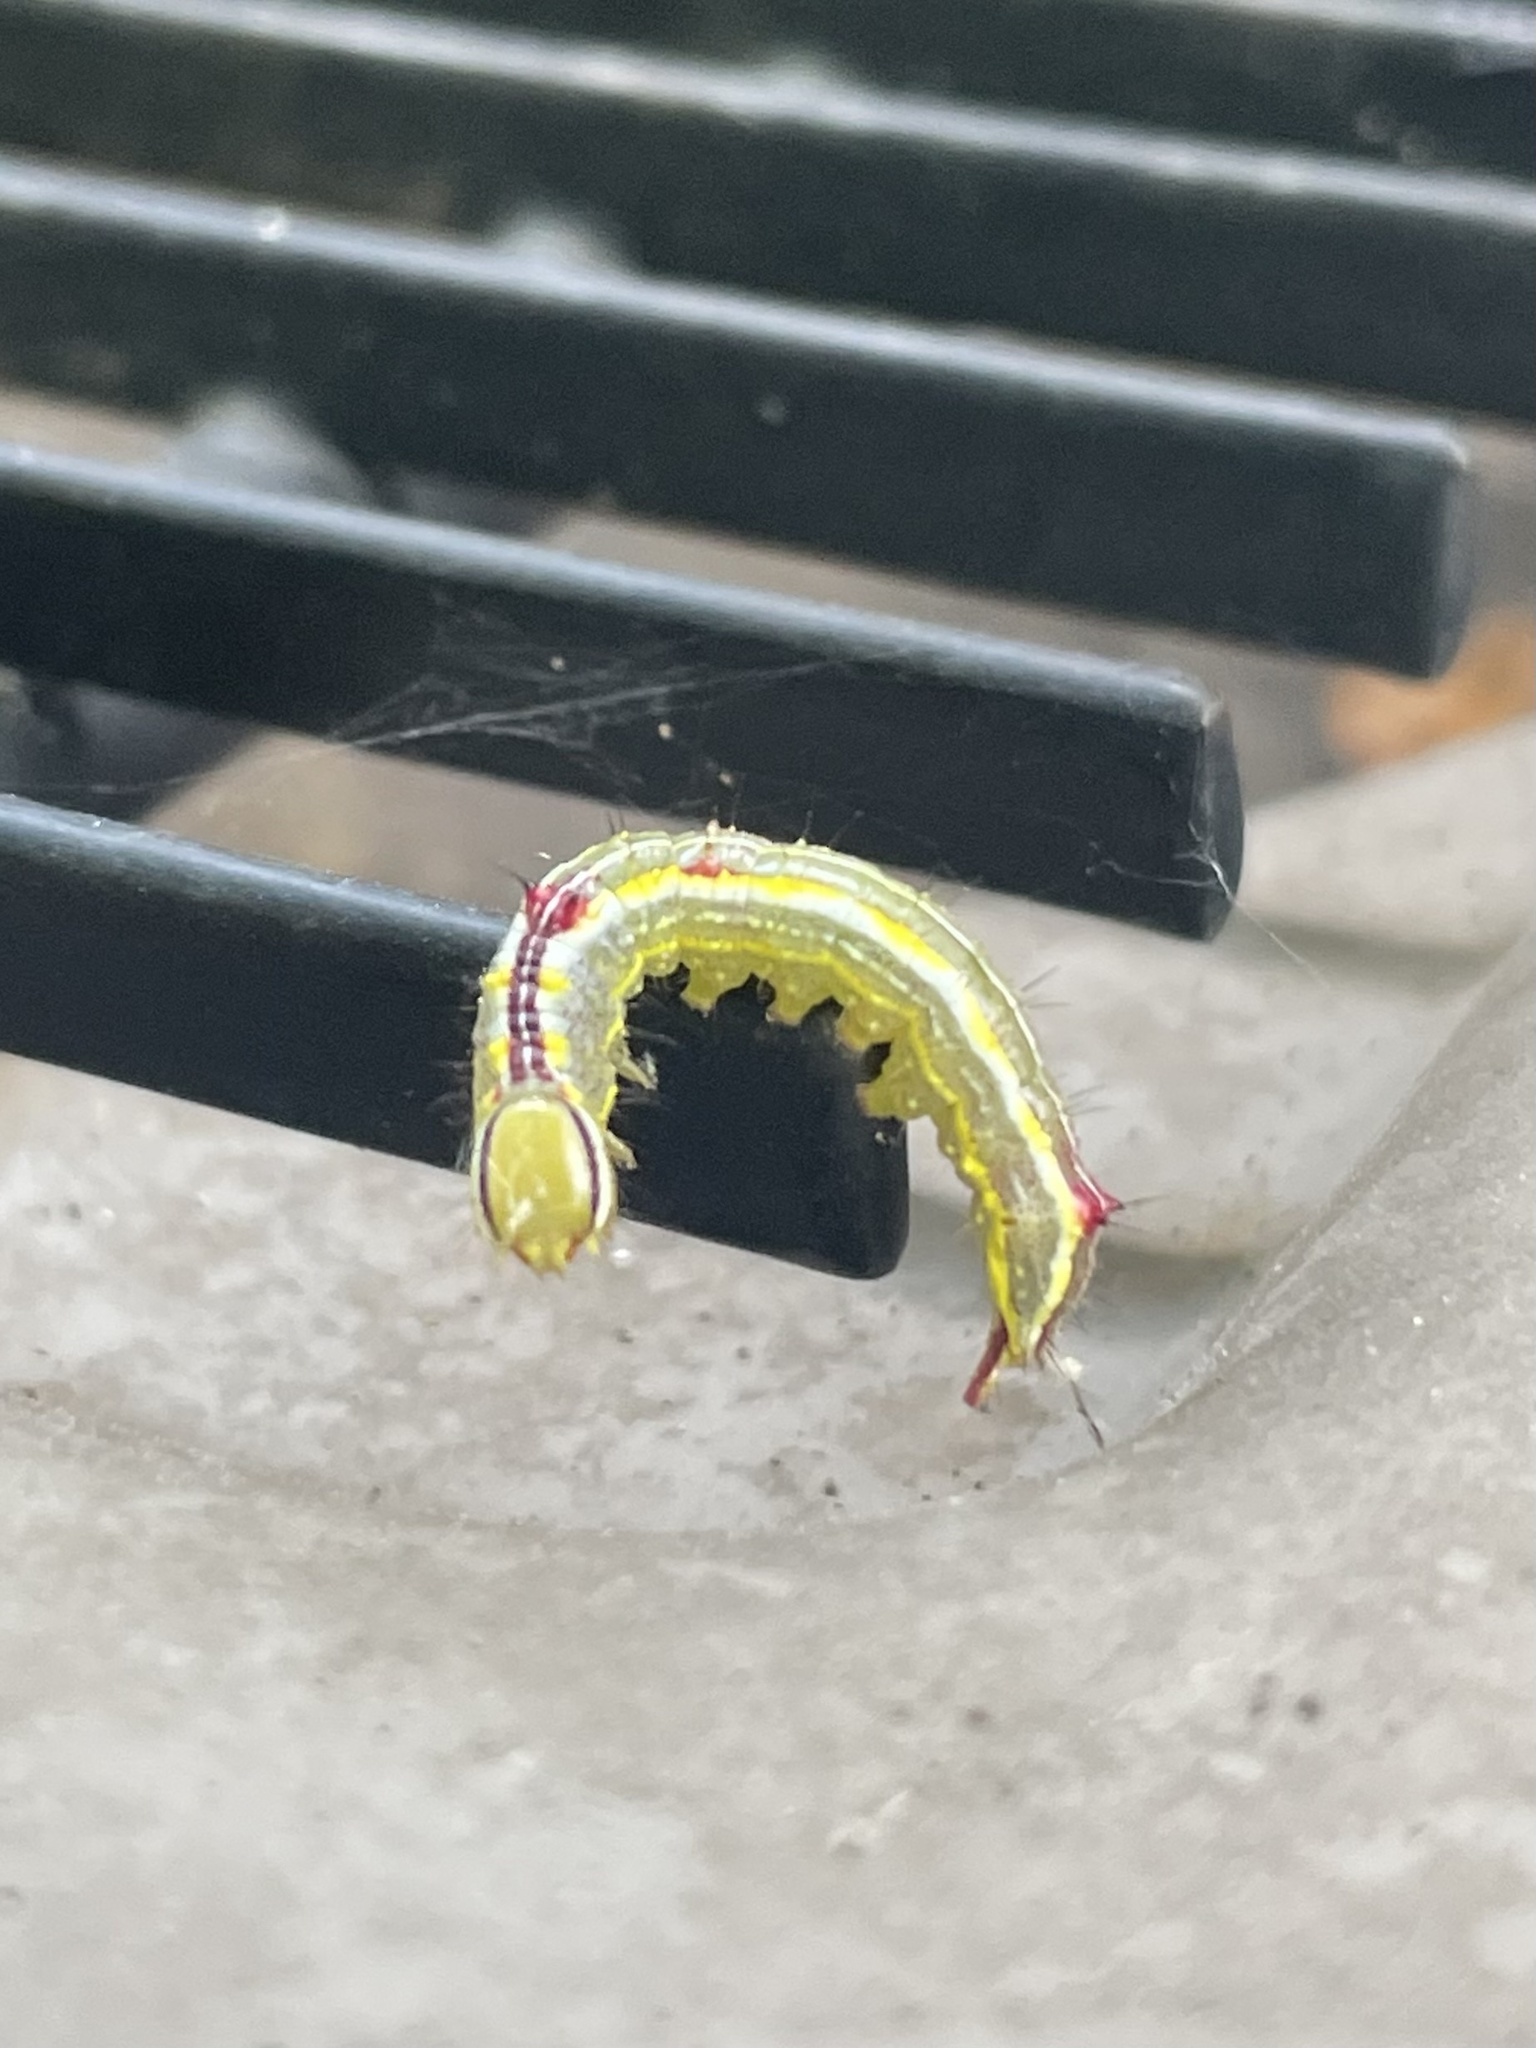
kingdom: Animalia
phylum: Arthropoda
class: Insecta
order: Lepidoptera
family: Notodontidae
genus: Lochmaeus
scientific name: Lochmaeus manteo
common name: Variable oakleaf caterpillar moth
